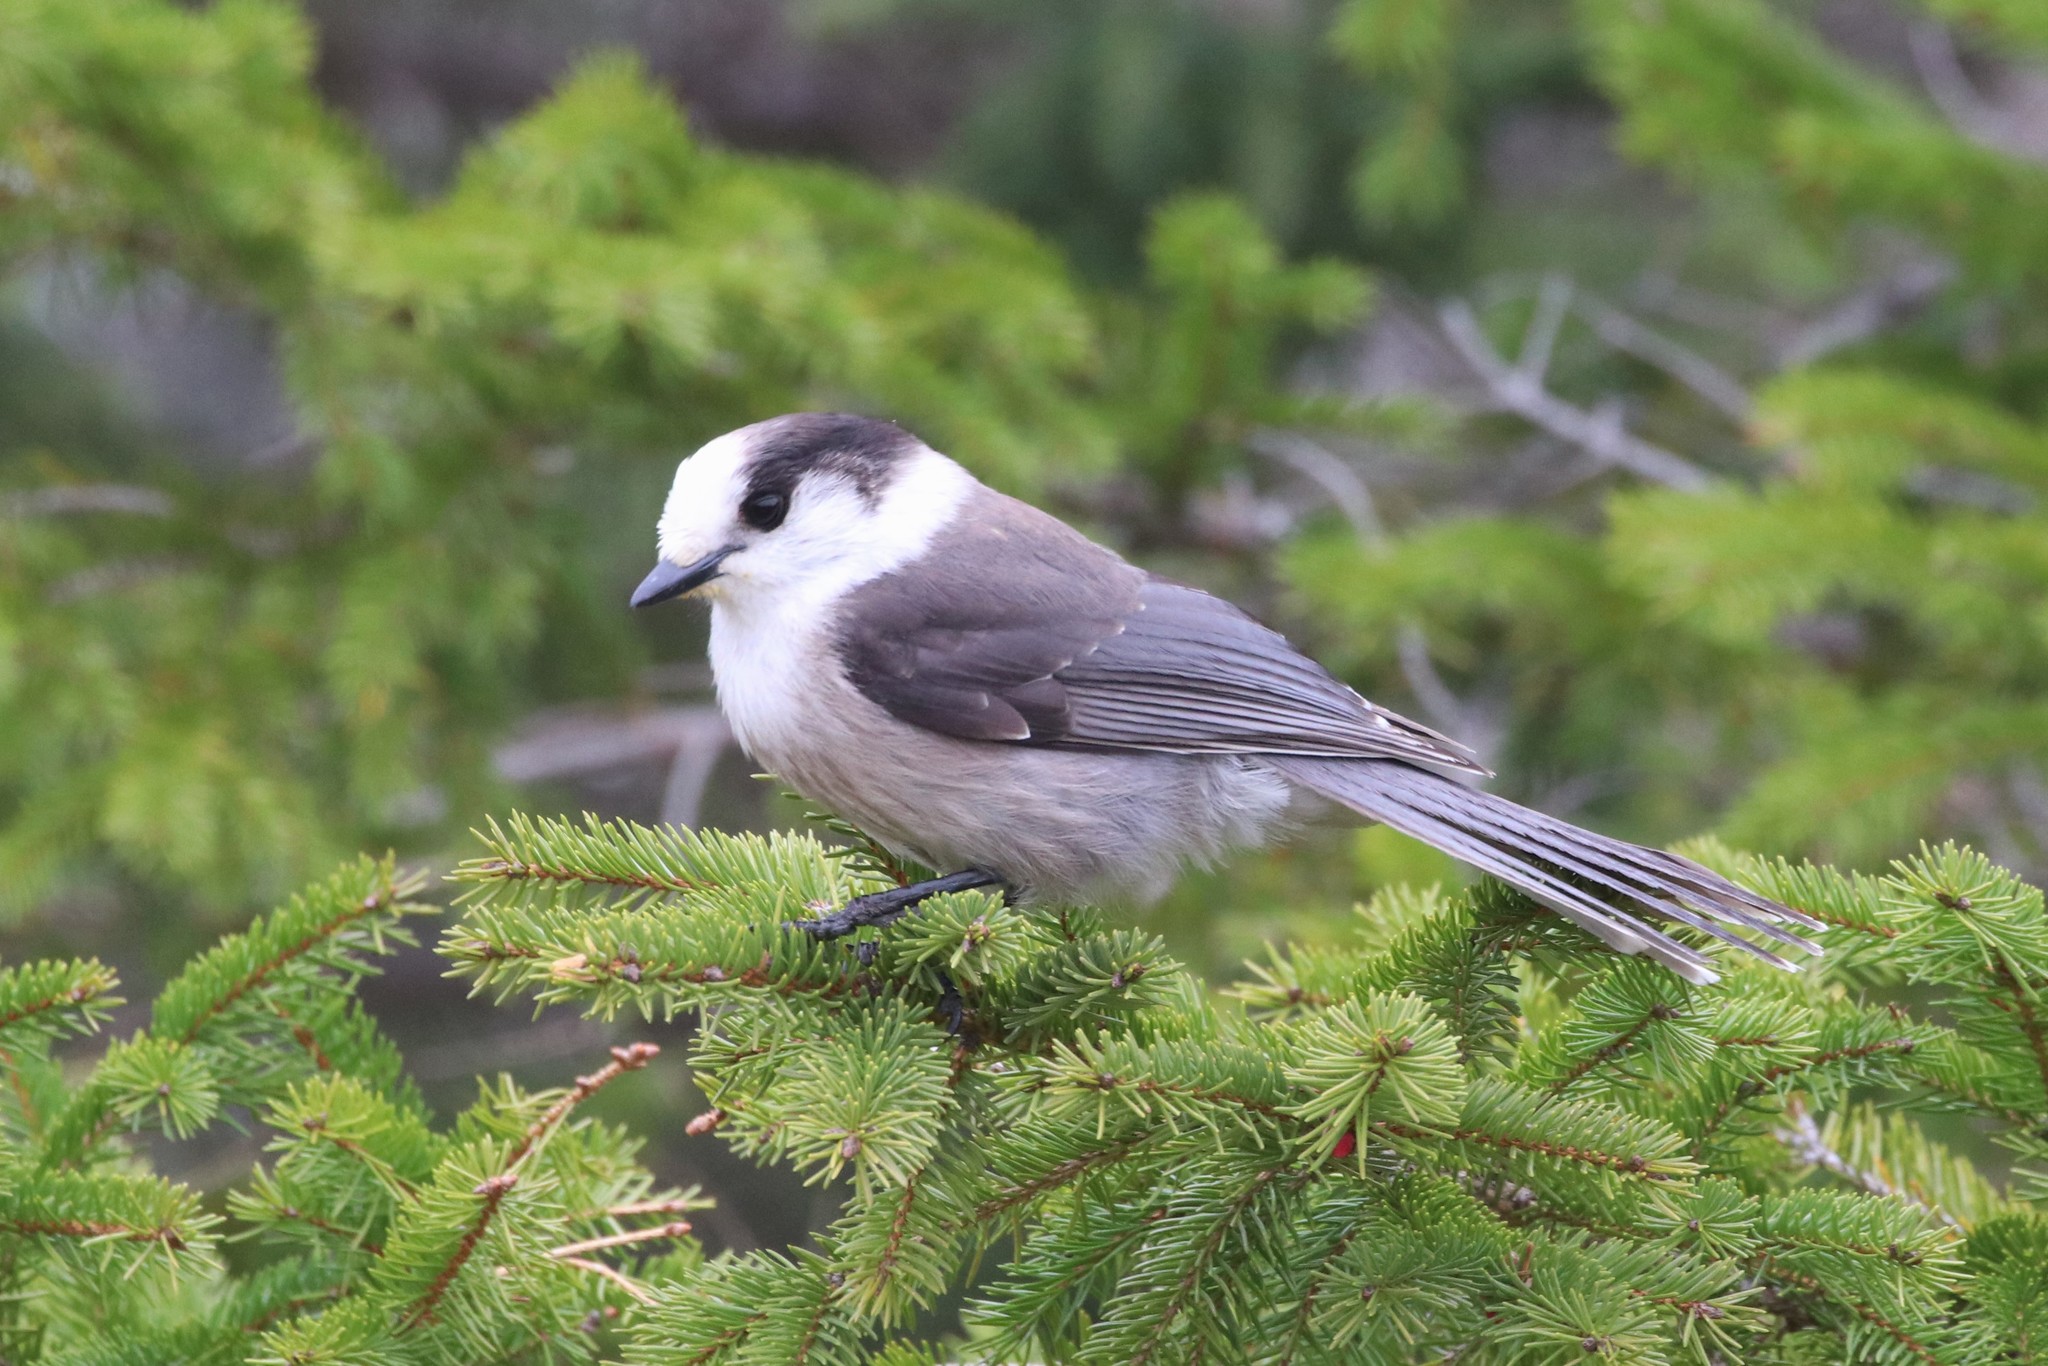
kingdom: Animalia
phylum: Chordata
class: Aves
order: Passeriformes
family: Corvidae
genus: Perisoreus
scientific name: Perisoreus canadensis
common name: Gray jay
